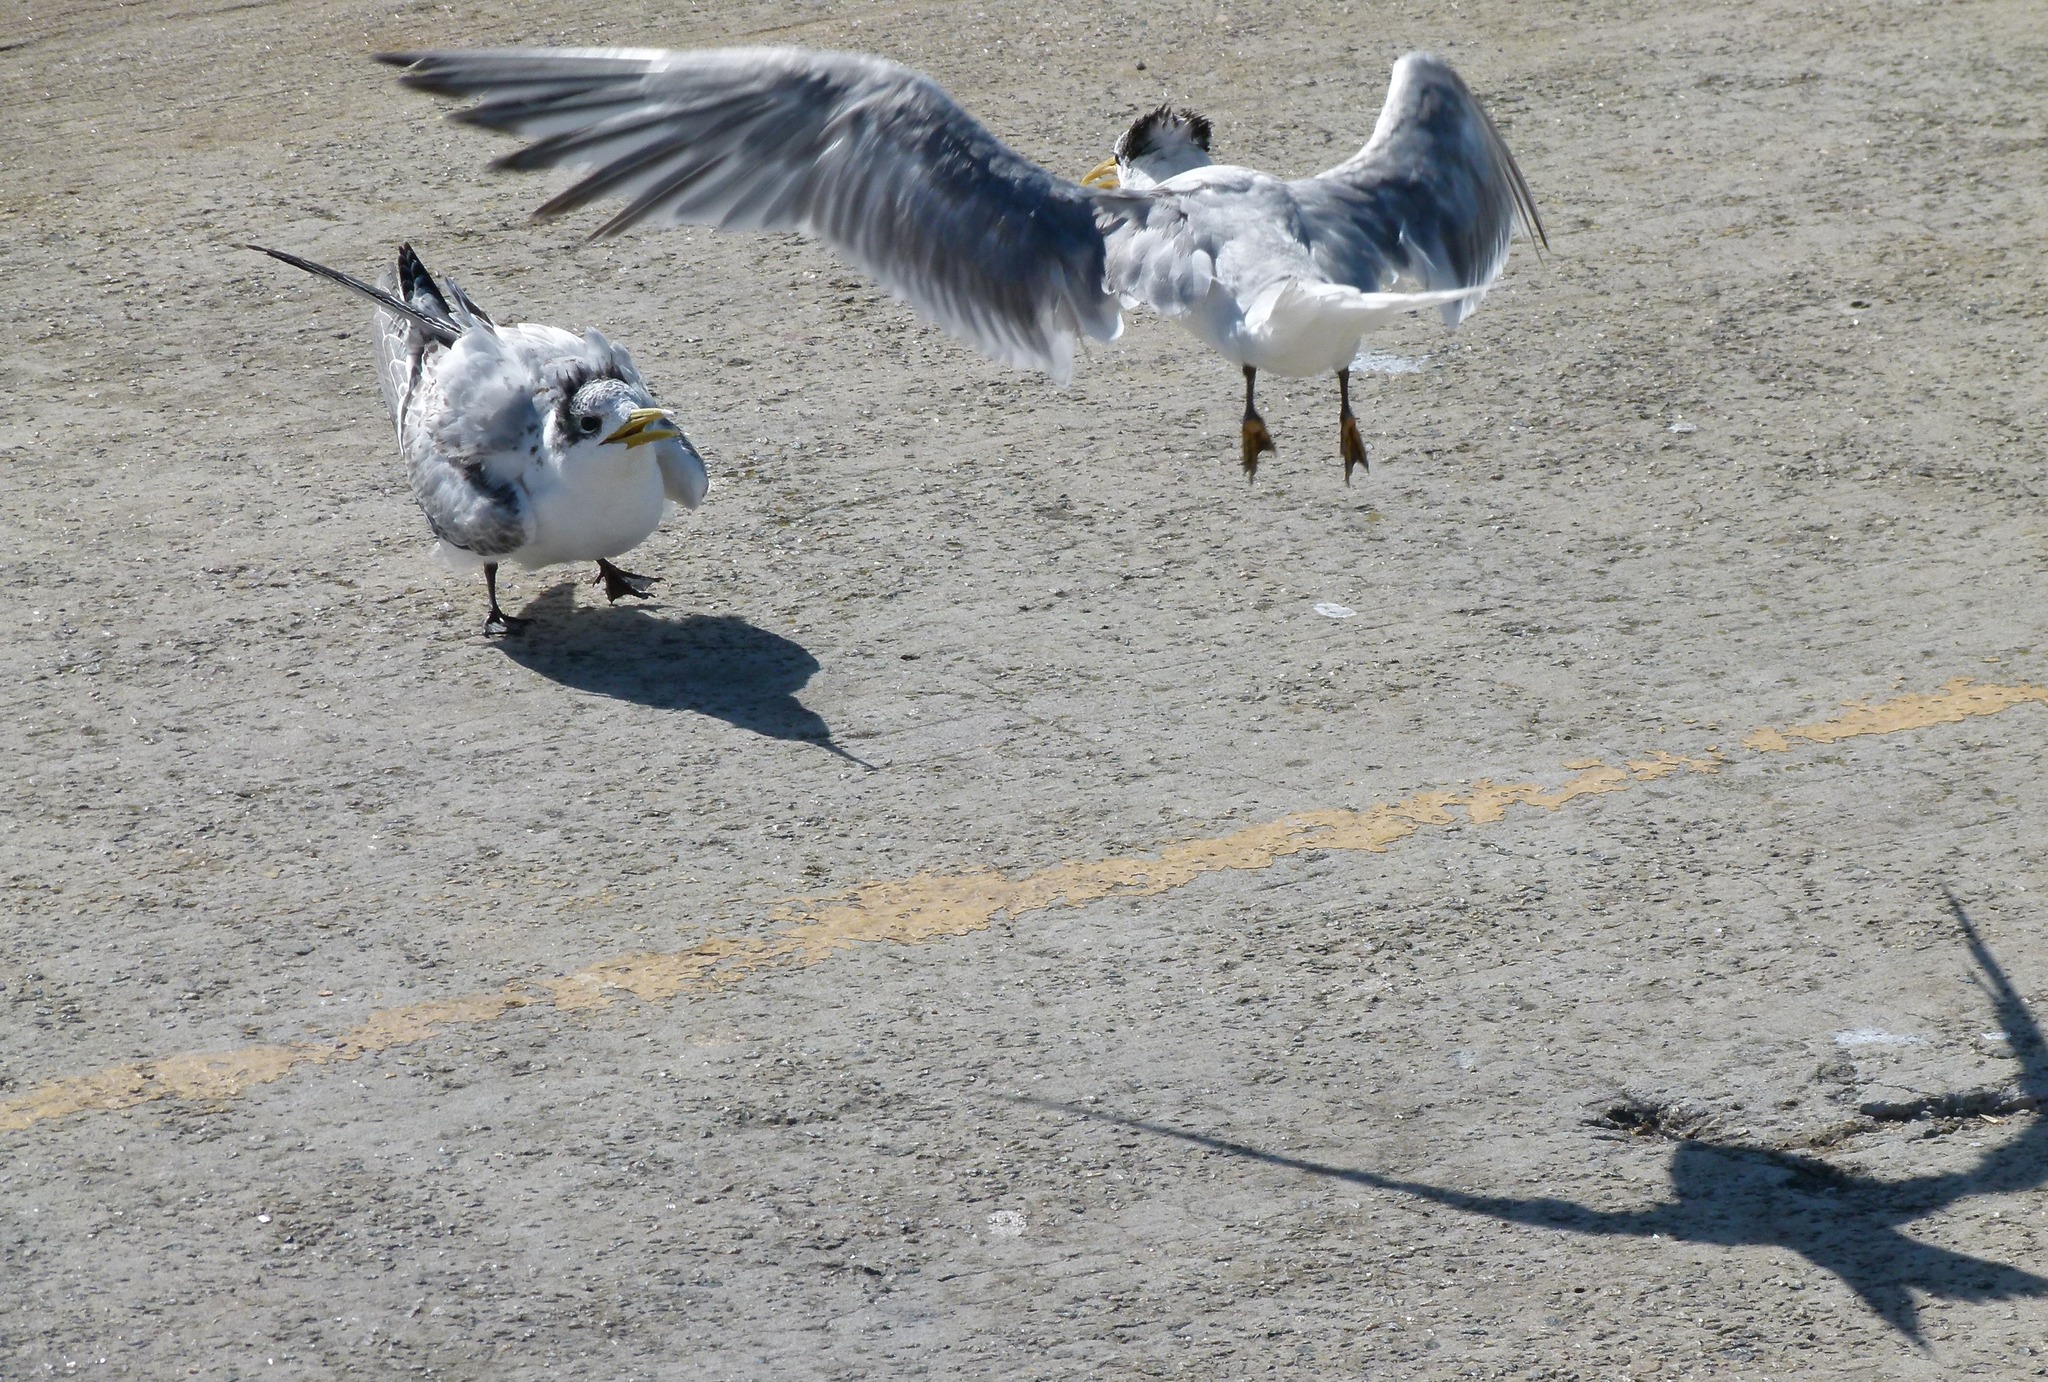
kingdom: Animalia
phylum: Chordata
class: Aves
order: Charadriiformes
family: Laridae
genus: Thalasseus
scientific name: Thalasseus bergii
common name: Greater crested tern
